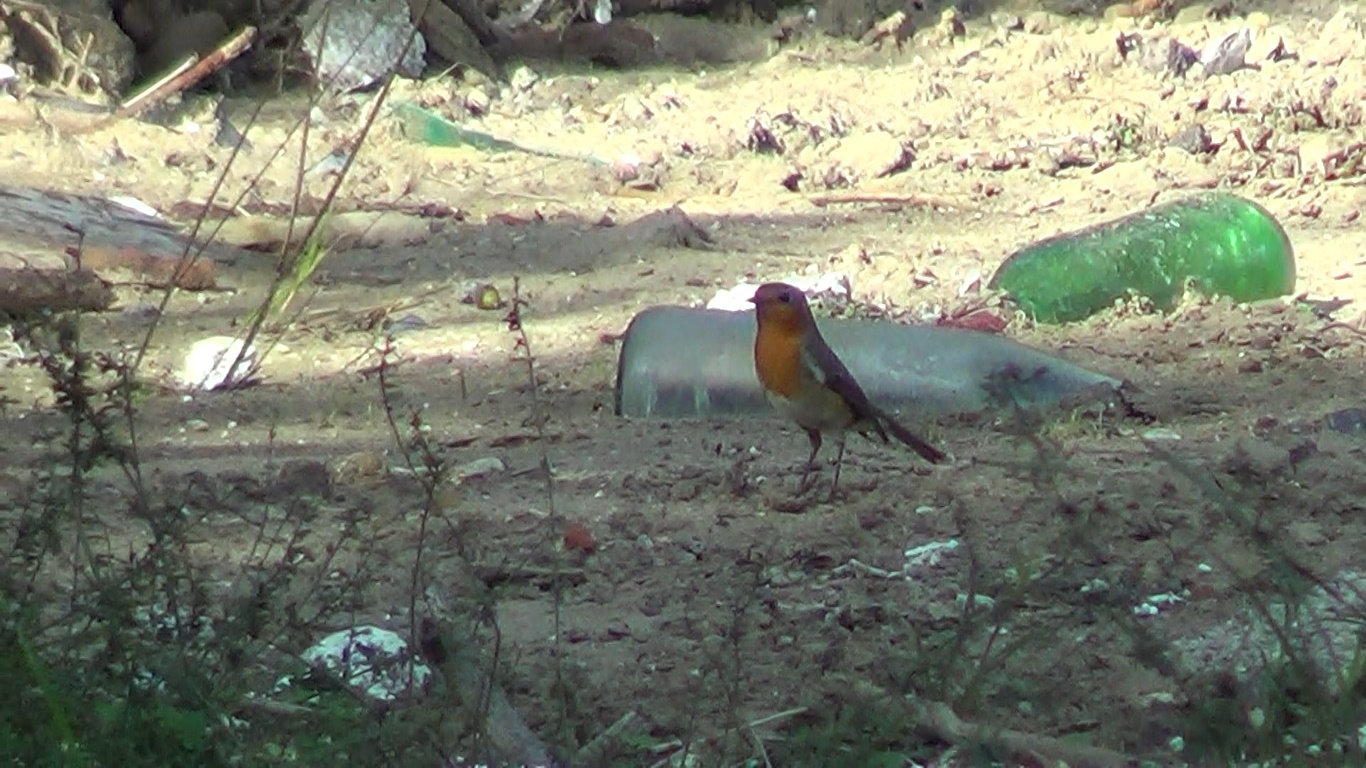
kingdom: Animalia
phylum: Chordata
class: Aves
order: Passeriformes
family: Muscicapidae
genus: Erithacus
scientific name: Erithacus rubecula
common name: European robin
